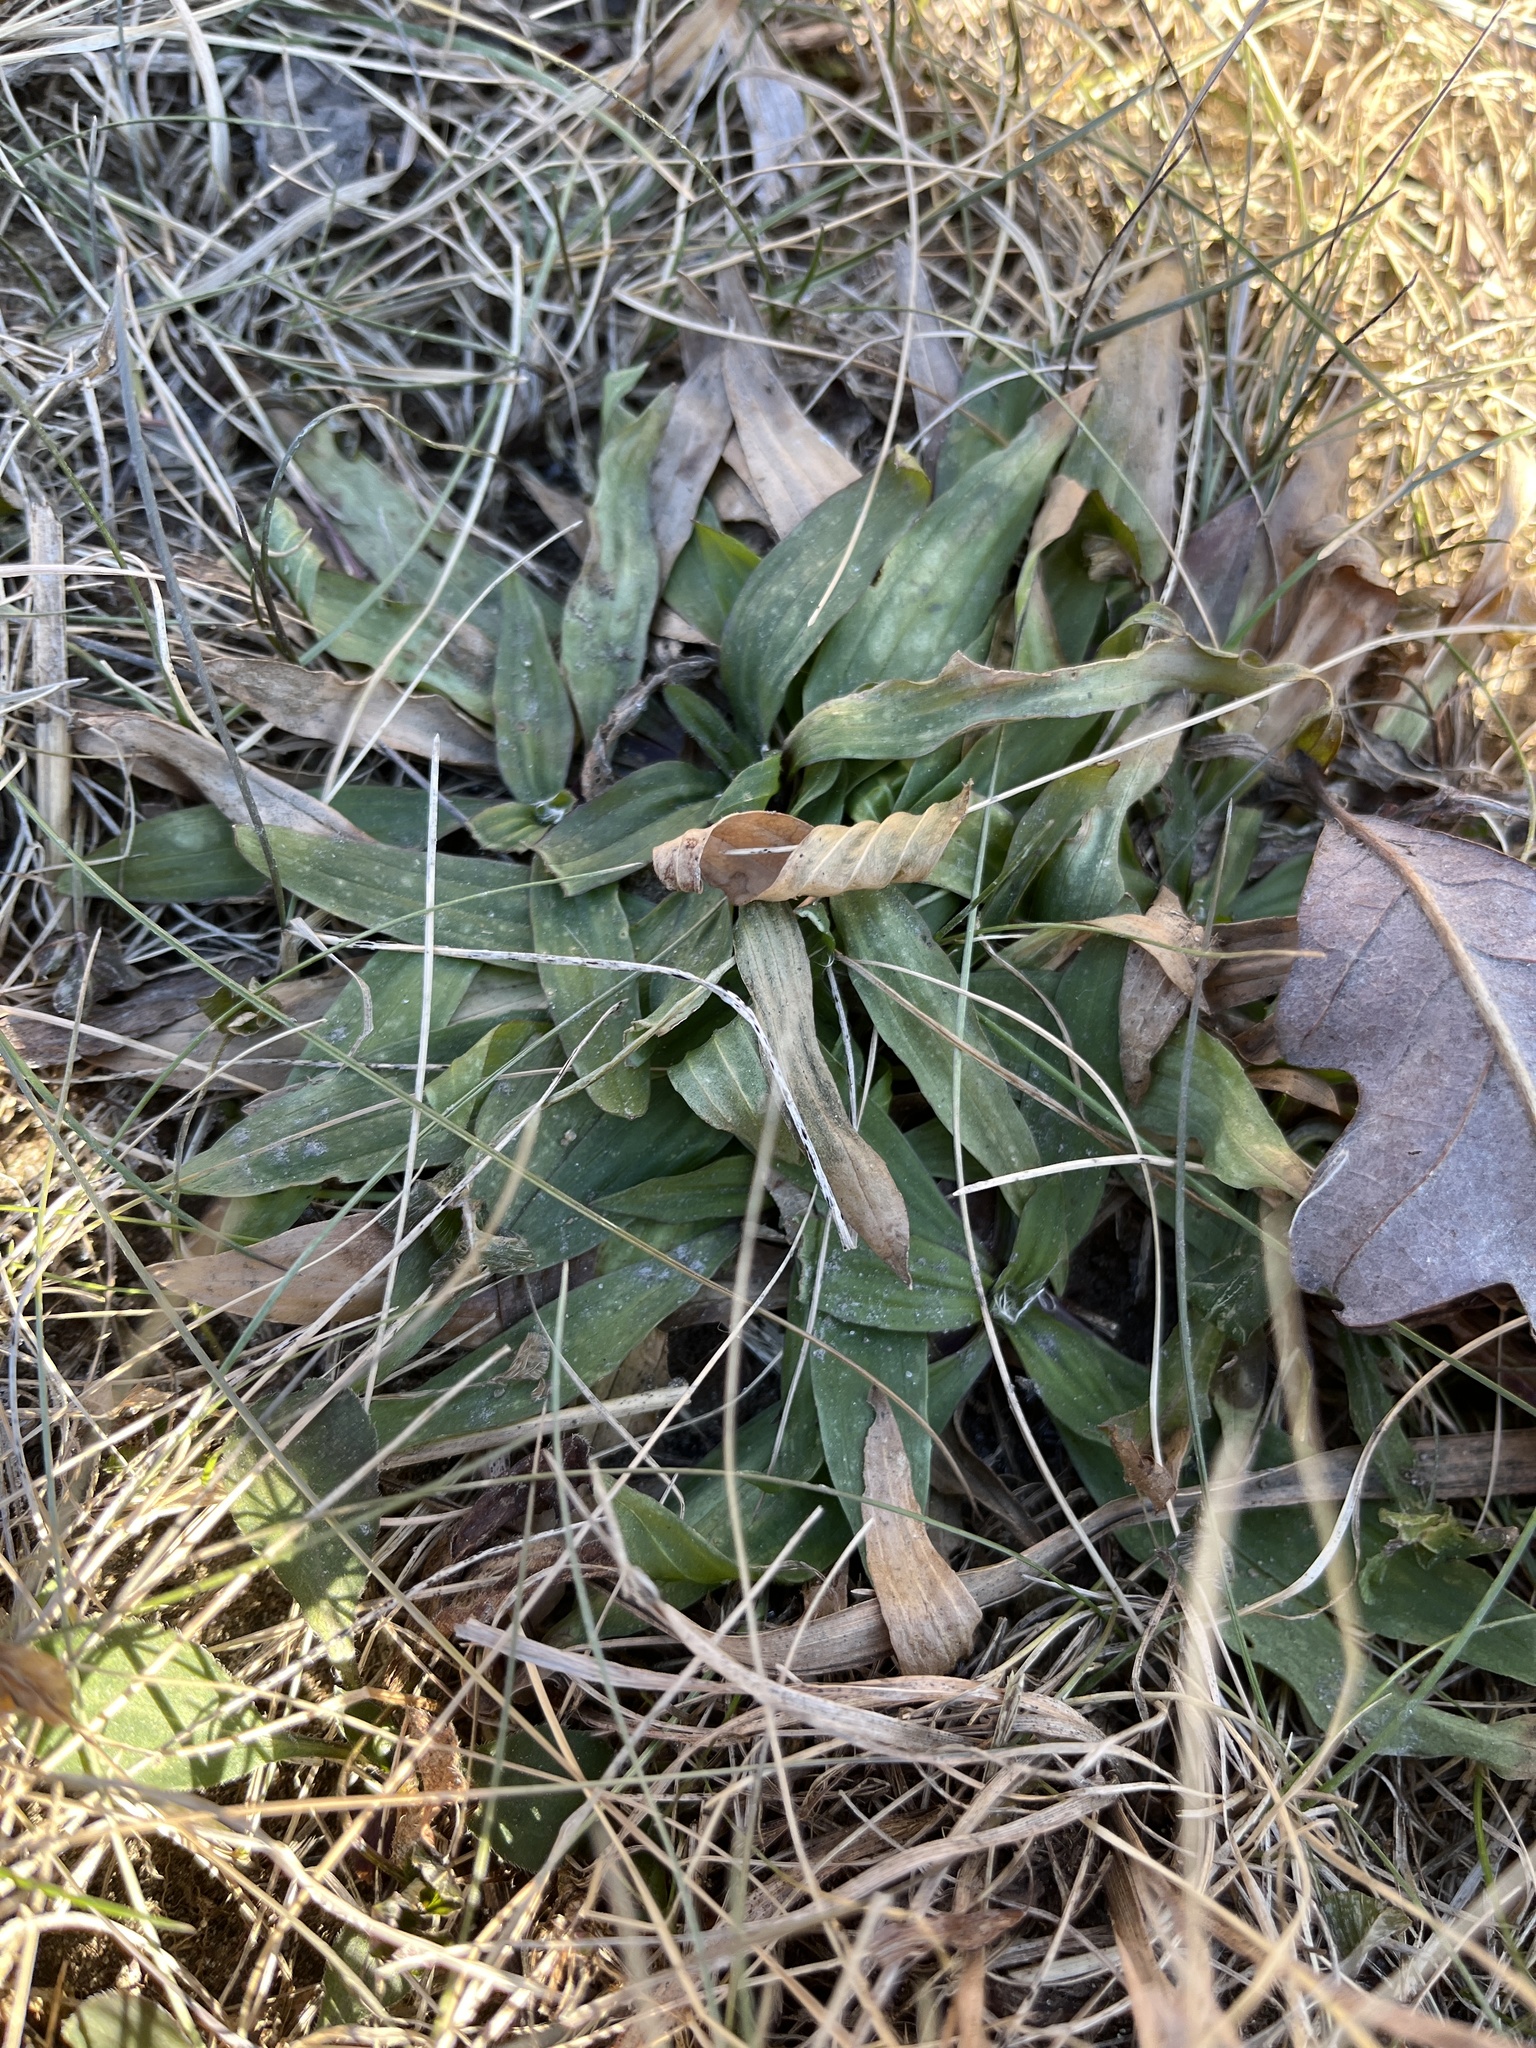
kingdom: Plantae
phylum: Tracheophyta
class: Magnoliopsida
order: Lamiales
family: Plantaginaceae
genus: Plantago
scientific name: Plantago lanceolata
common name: Ribwort plantain
